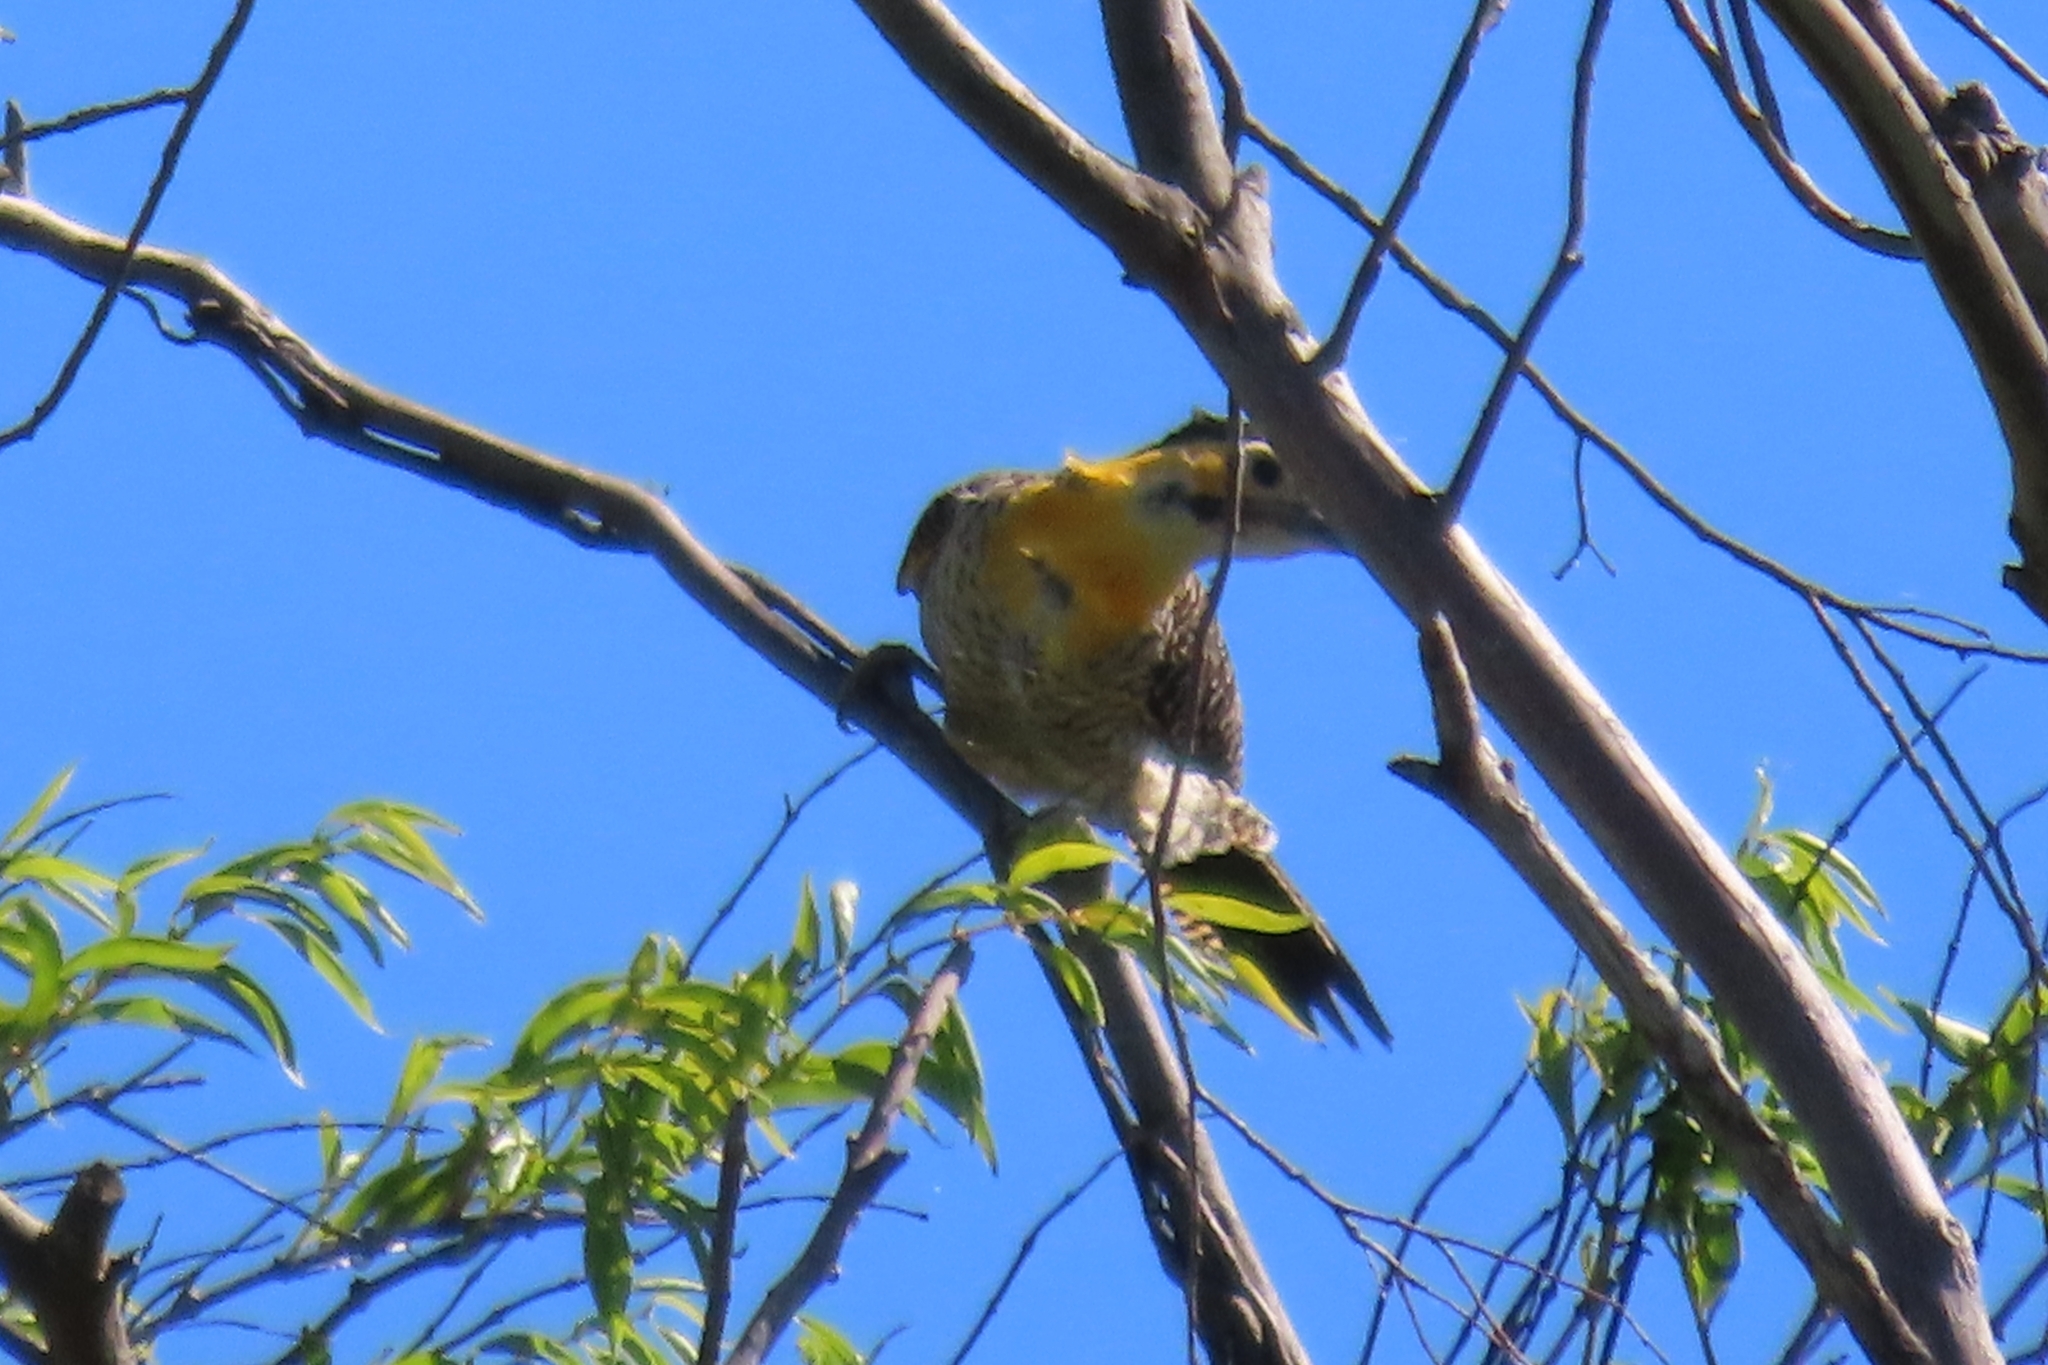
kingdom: Animalia
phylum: Chordata
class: Aves
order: Piciformes
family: Picidae
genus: Colaptes
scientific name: Colaptes campestris
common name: Campo flicker
